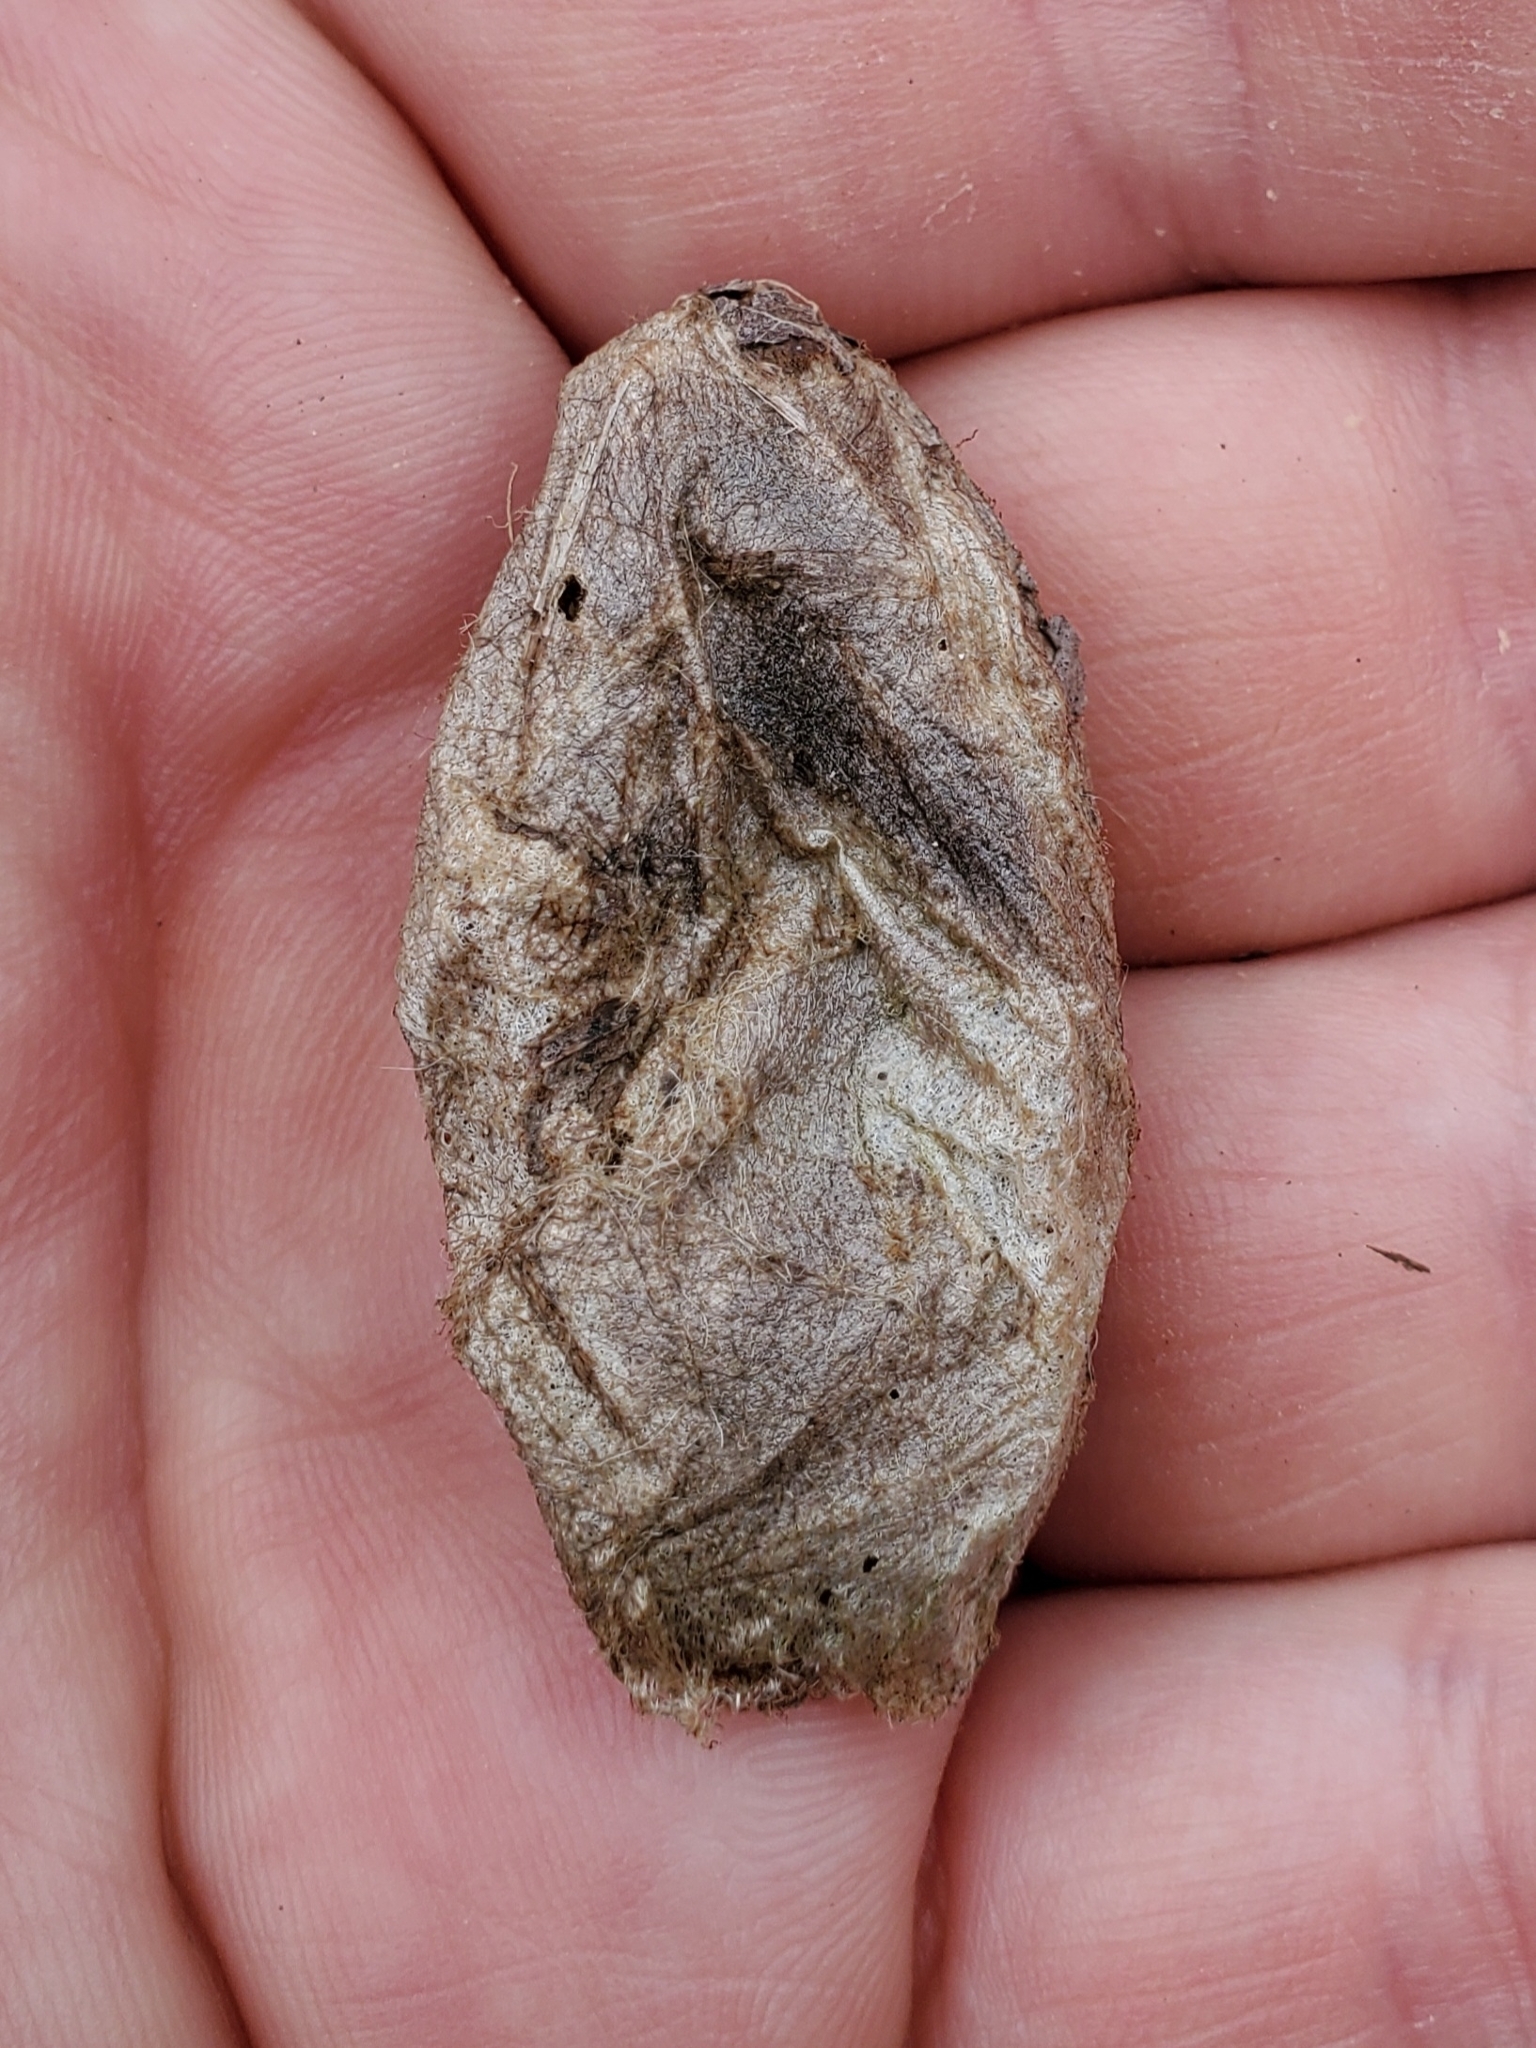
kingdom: Animalia
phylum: Arthropoda
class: Insecta
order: Lepidoptera
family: Saturniidae
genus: Antheraea
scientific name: Antheraea polyphemus
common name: Polyphemus moth
